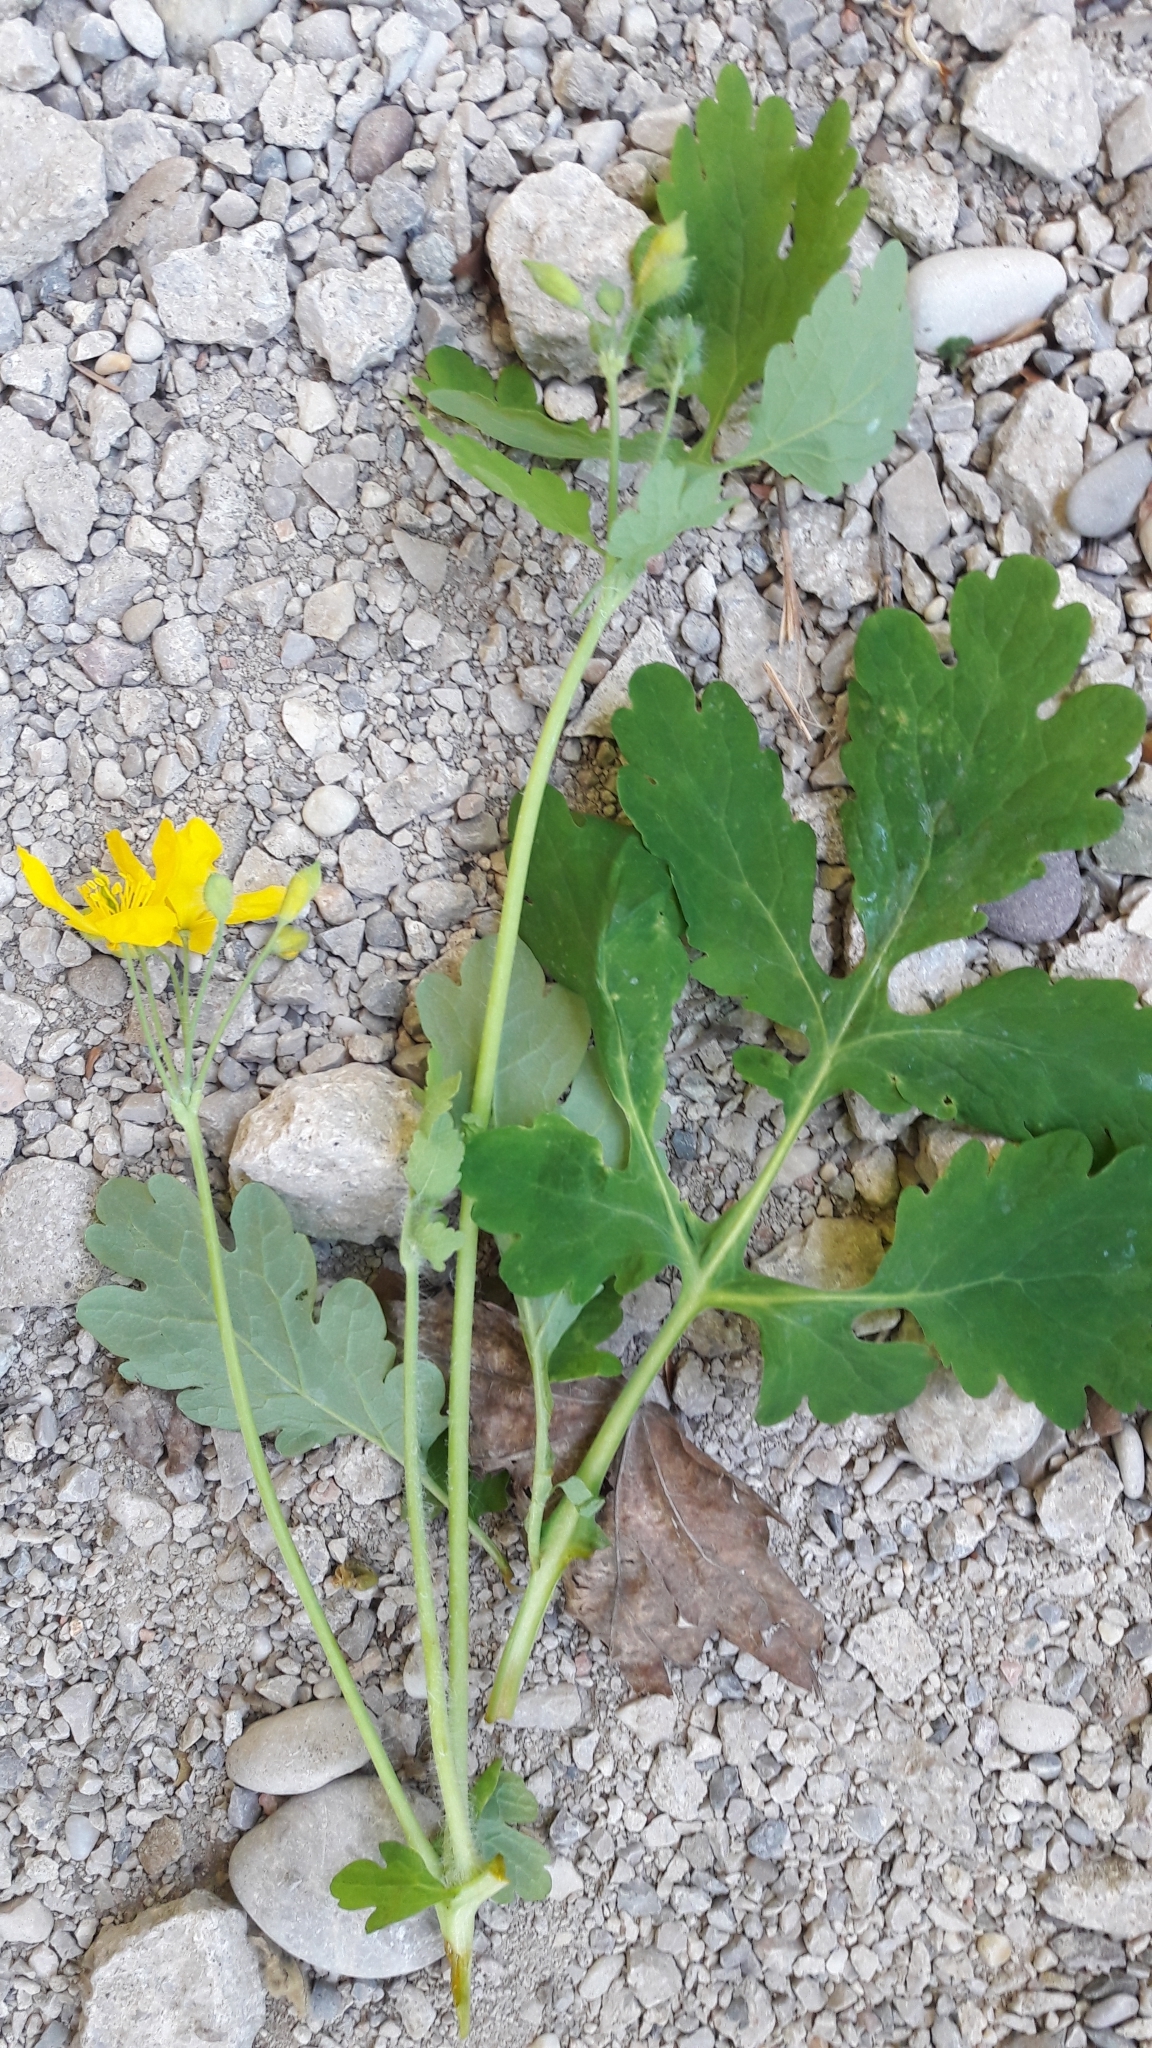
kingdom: Plantae
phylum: Tracheophyta
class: Magnoliopsida
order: Ranunculales
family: Papaveraceae
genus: Chelidonium
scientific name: Chelidonium majus
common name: Greater celandine
